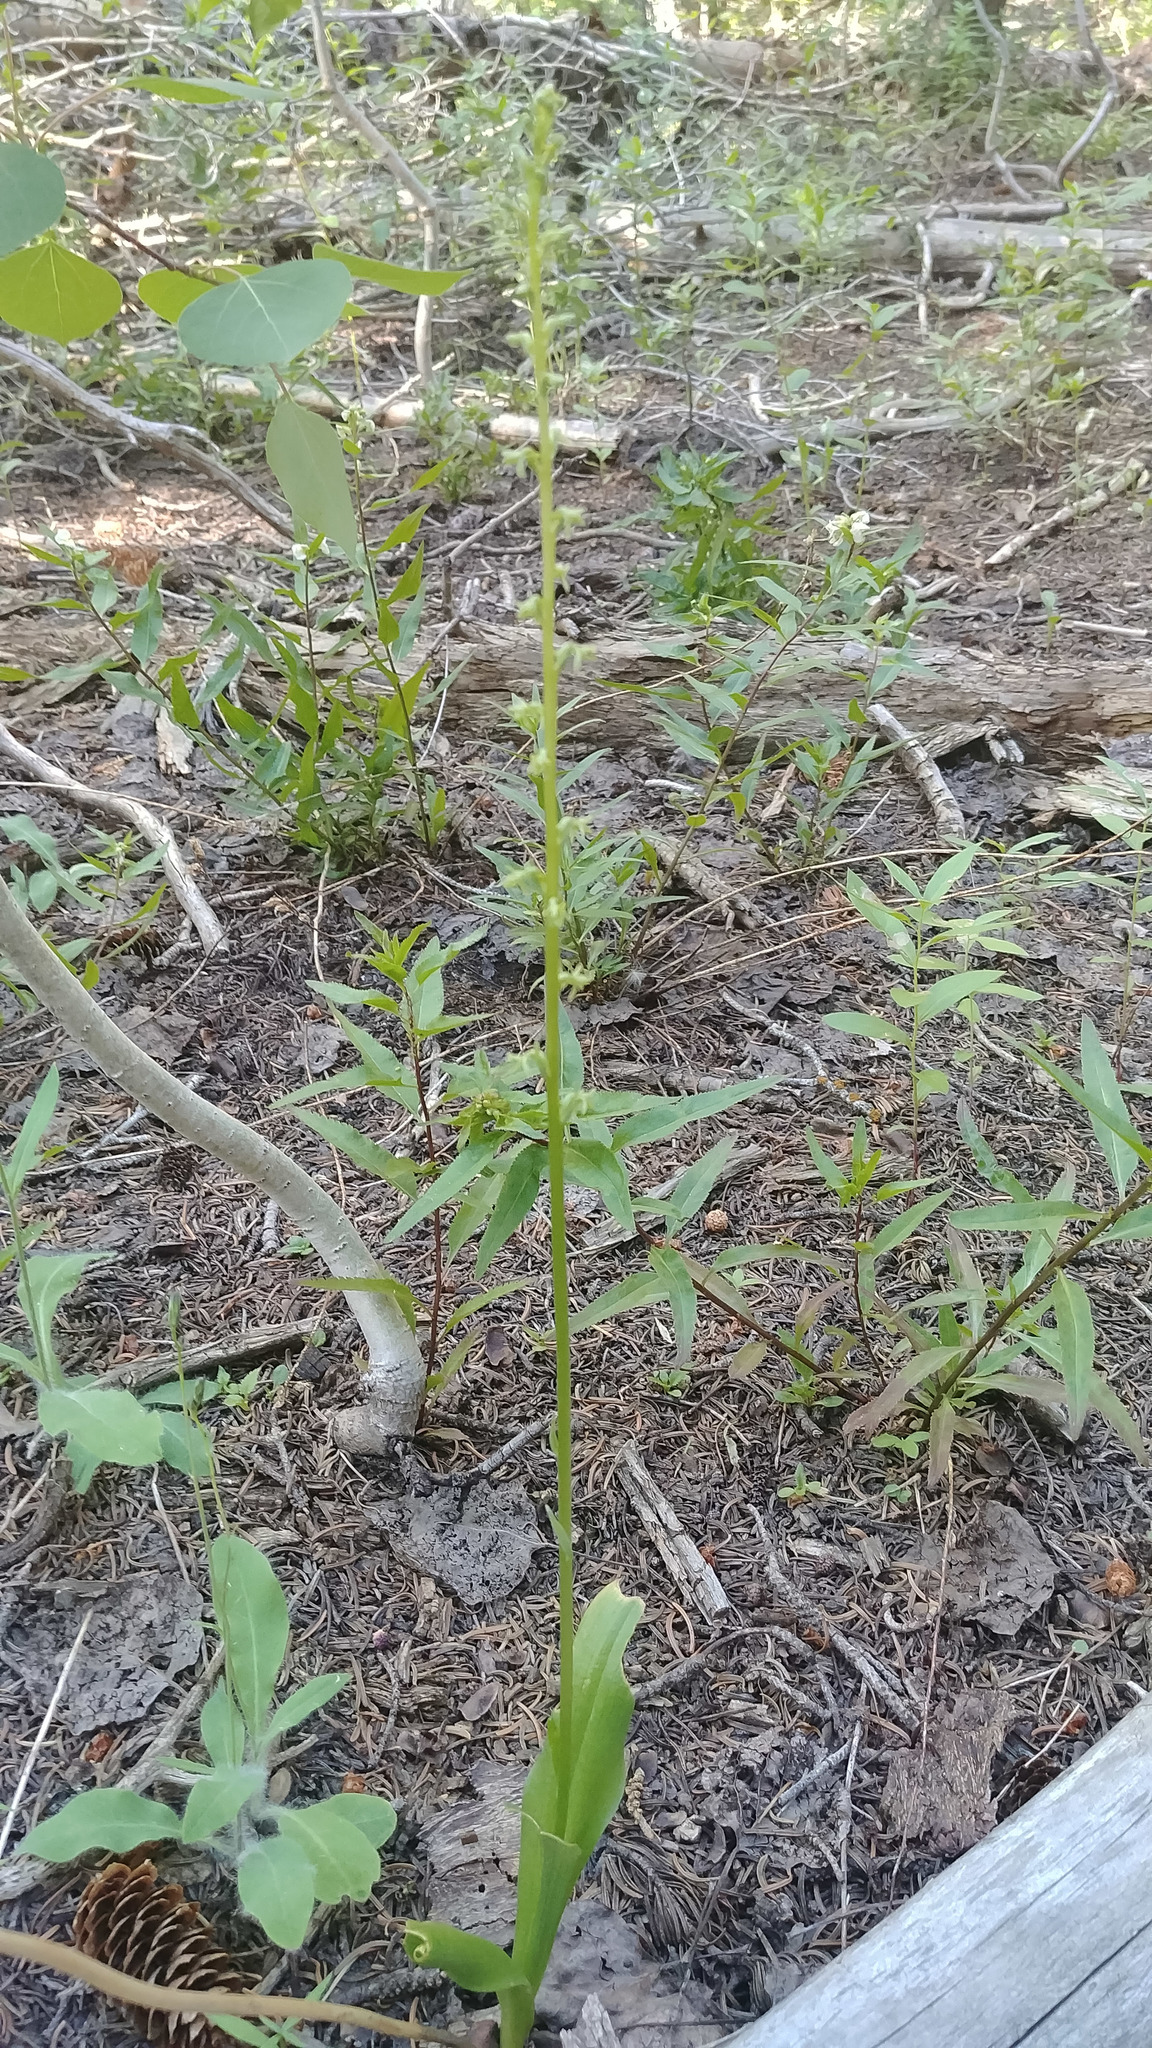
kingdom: Plantae
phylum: Tracheophyta
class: Liliopsida
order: Asparagales
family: Orchidaceae
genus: Platanthera
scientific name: Platanthera unalascensis
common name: Alaska bog orchid
